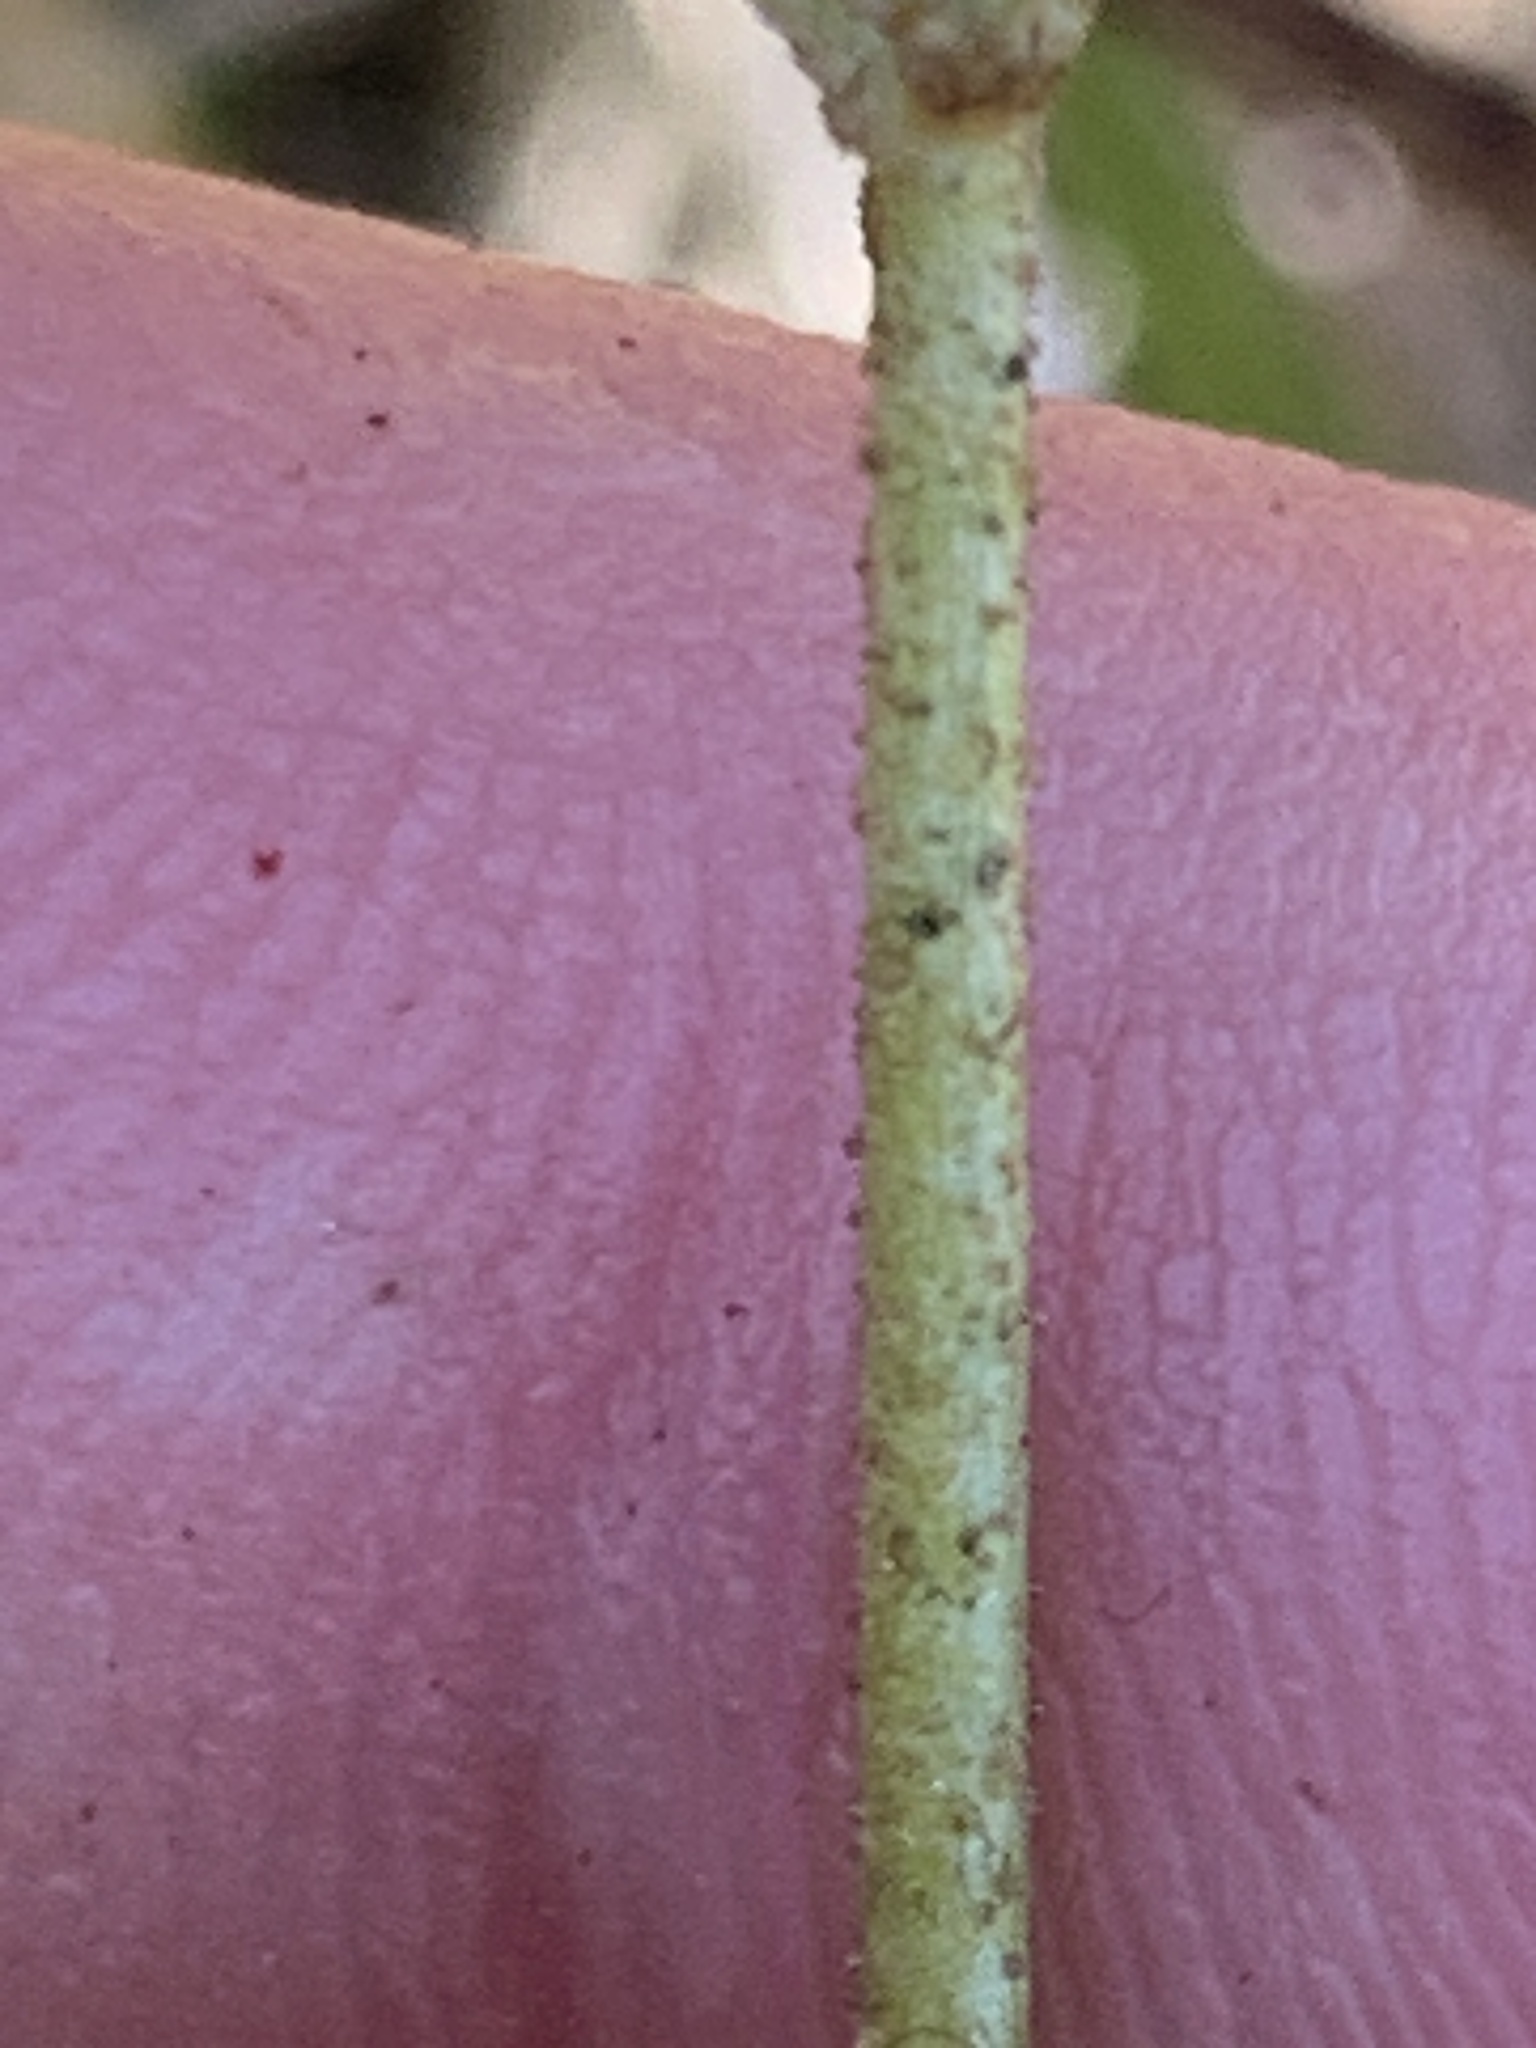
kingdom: Plantae
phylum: Tracheophyta
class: Liliopsida
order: Alismatales
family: Tofieldiaceae
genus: Triantha
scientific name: Triantha glutinosa
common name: Glutinous tofieldia
